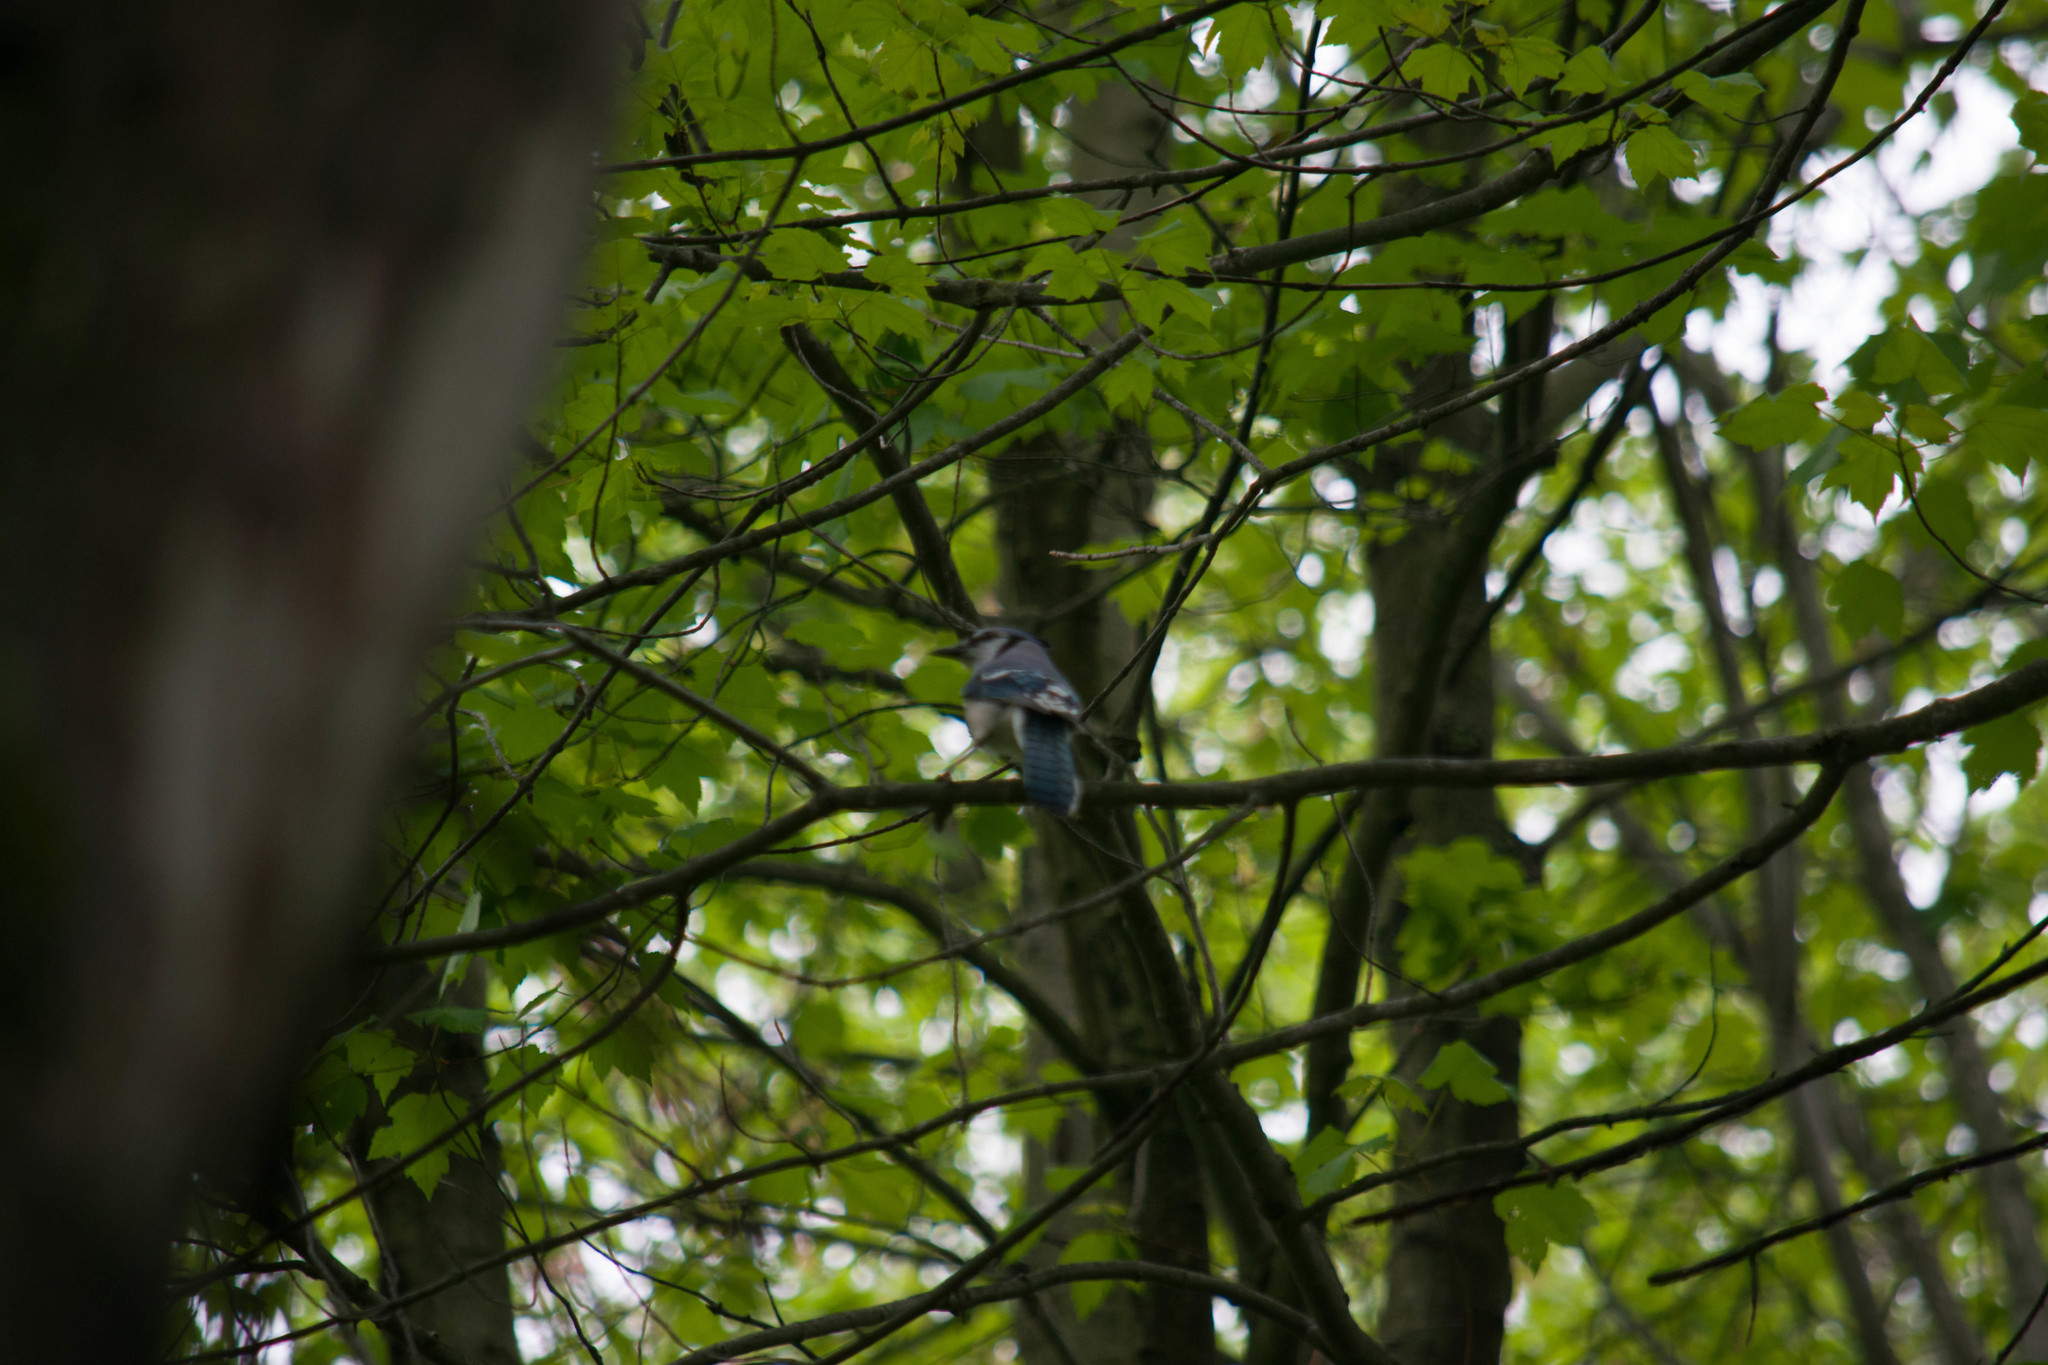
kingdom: Animalia
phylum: Chordata
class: Aves
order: Passeriformes
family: Corvidae
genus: Cyanocitta
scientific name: Cyanocitta cristata
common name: Blue jay
